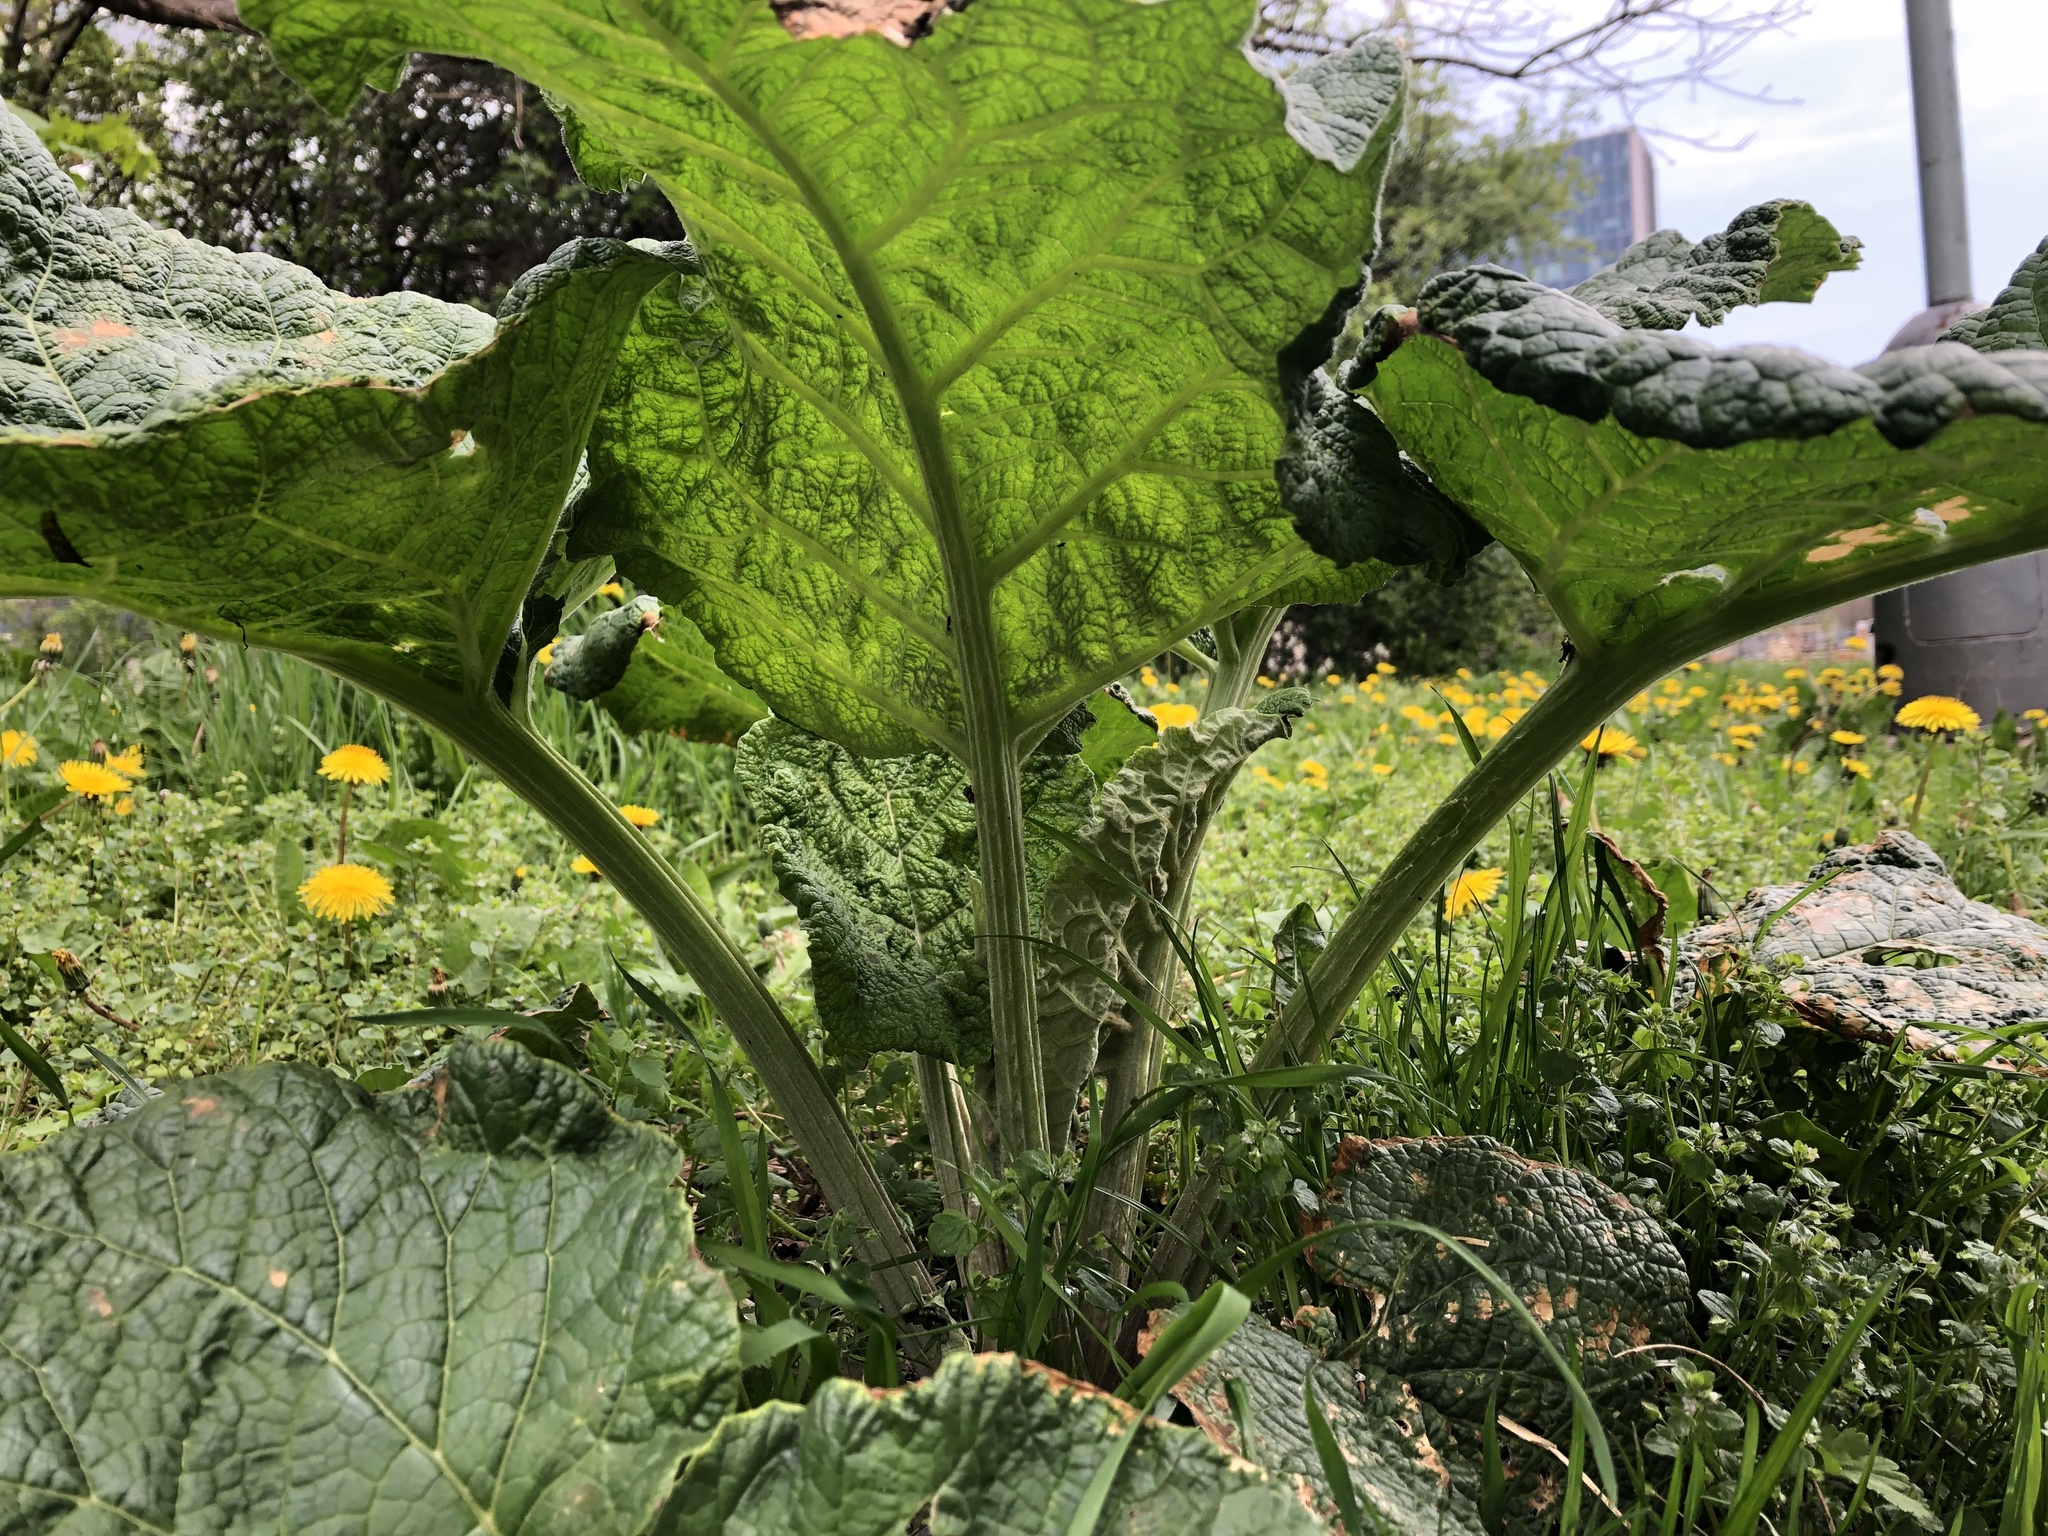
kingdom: Plantae
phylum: Tracheophyta
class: Magnoliopsida
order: Asterales
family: Asteraceae
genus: Arctium
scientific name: Arctium
